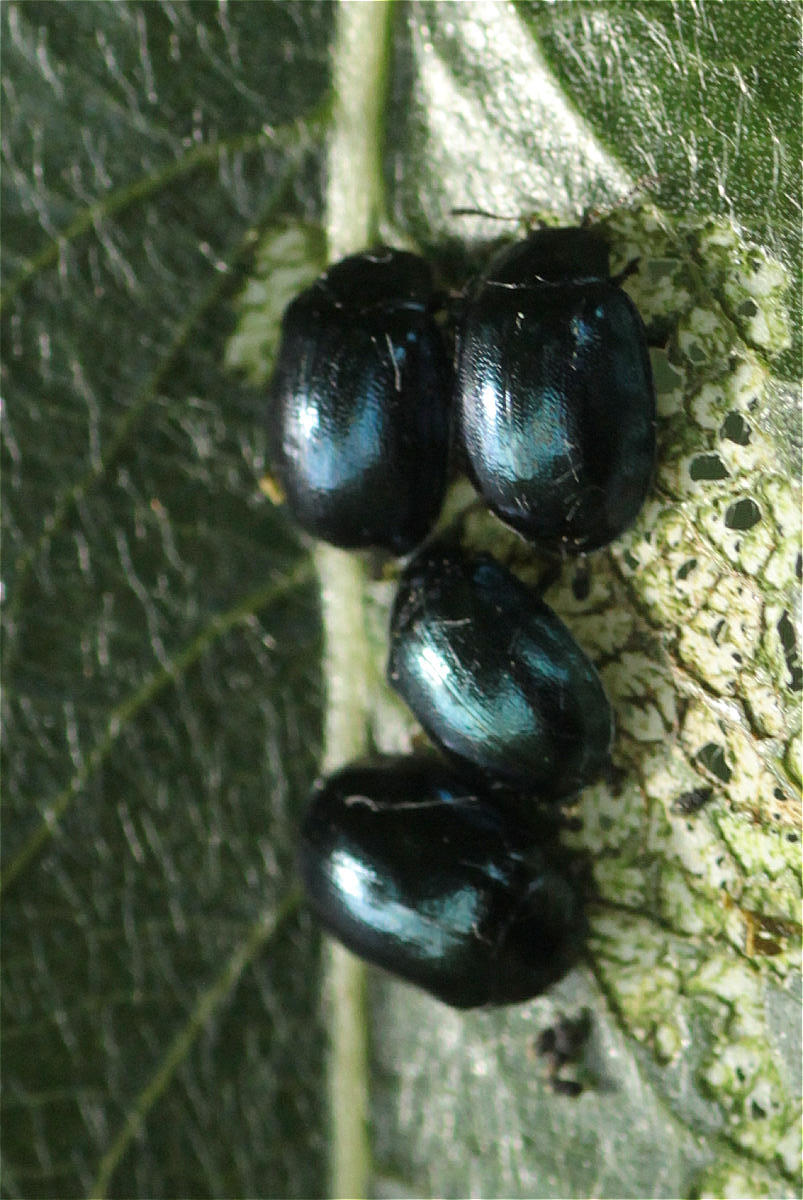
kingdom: Animalia
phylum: Arthropoda
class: Insecta
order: Coleoptera
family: Chrysomelidae
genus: Plagiodera
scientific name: Plagiodera versicolora
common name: Imported willow leaf beetle
